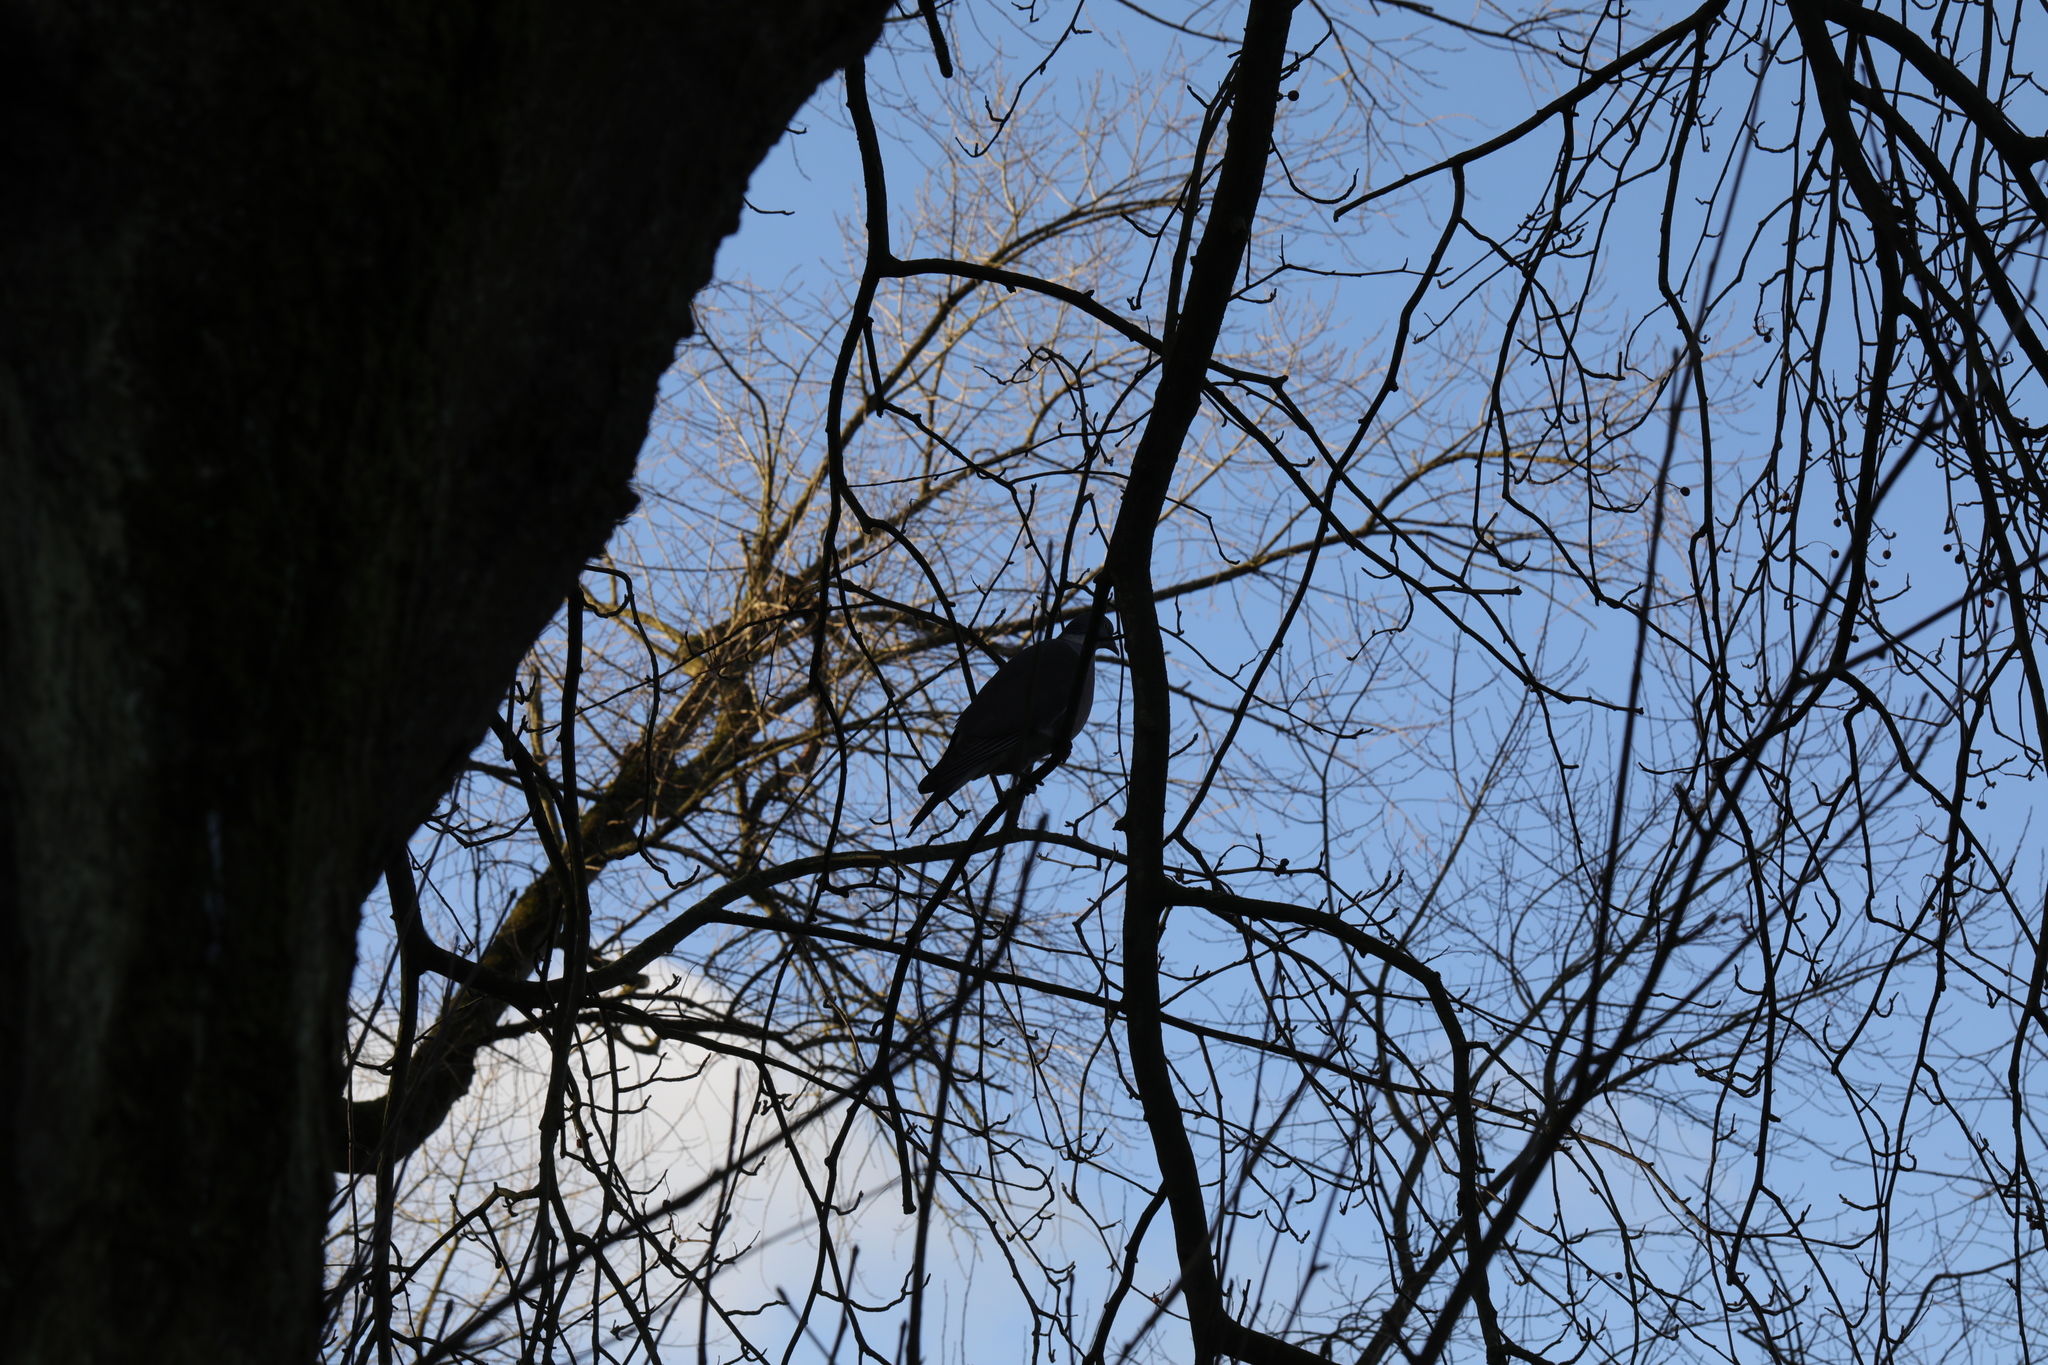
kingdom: Animalia
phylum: Chordata
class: Aves
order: Columbiformes
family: Columbidae
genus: Columba
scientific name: Columba palumbus
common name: Common wood pigeon
